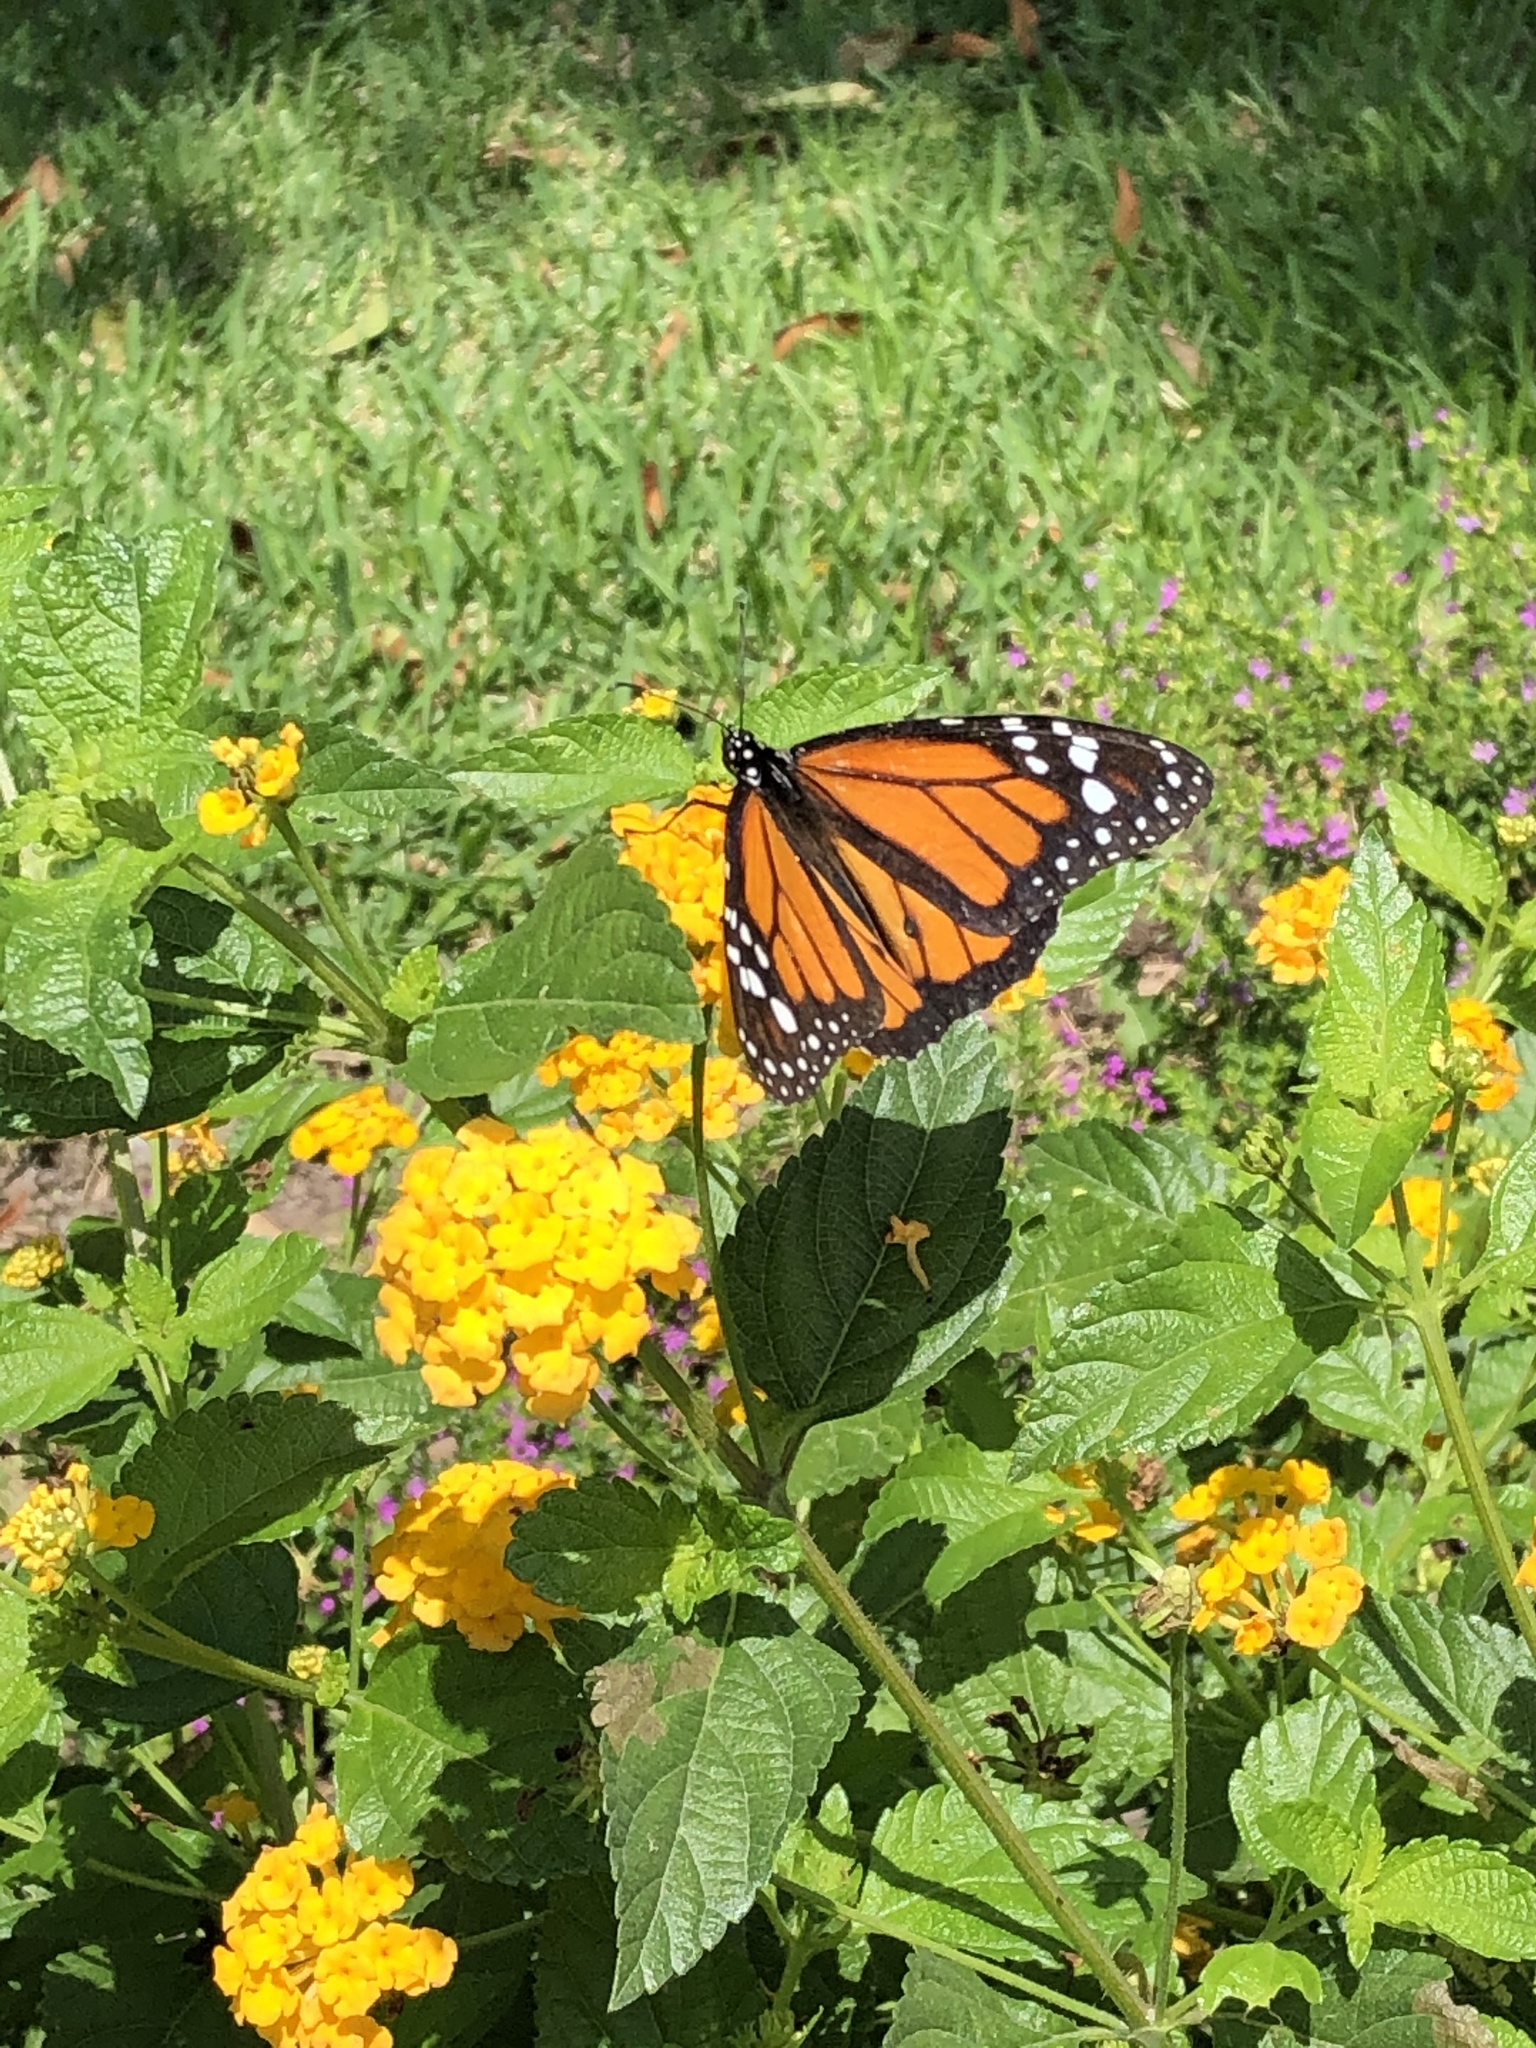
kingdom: Animalia
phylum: Arthropoda
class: Insecta
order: Lepidoptera
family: Nymphalidae
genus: Danaus
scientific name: Danaus plexippus
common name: Monarch
